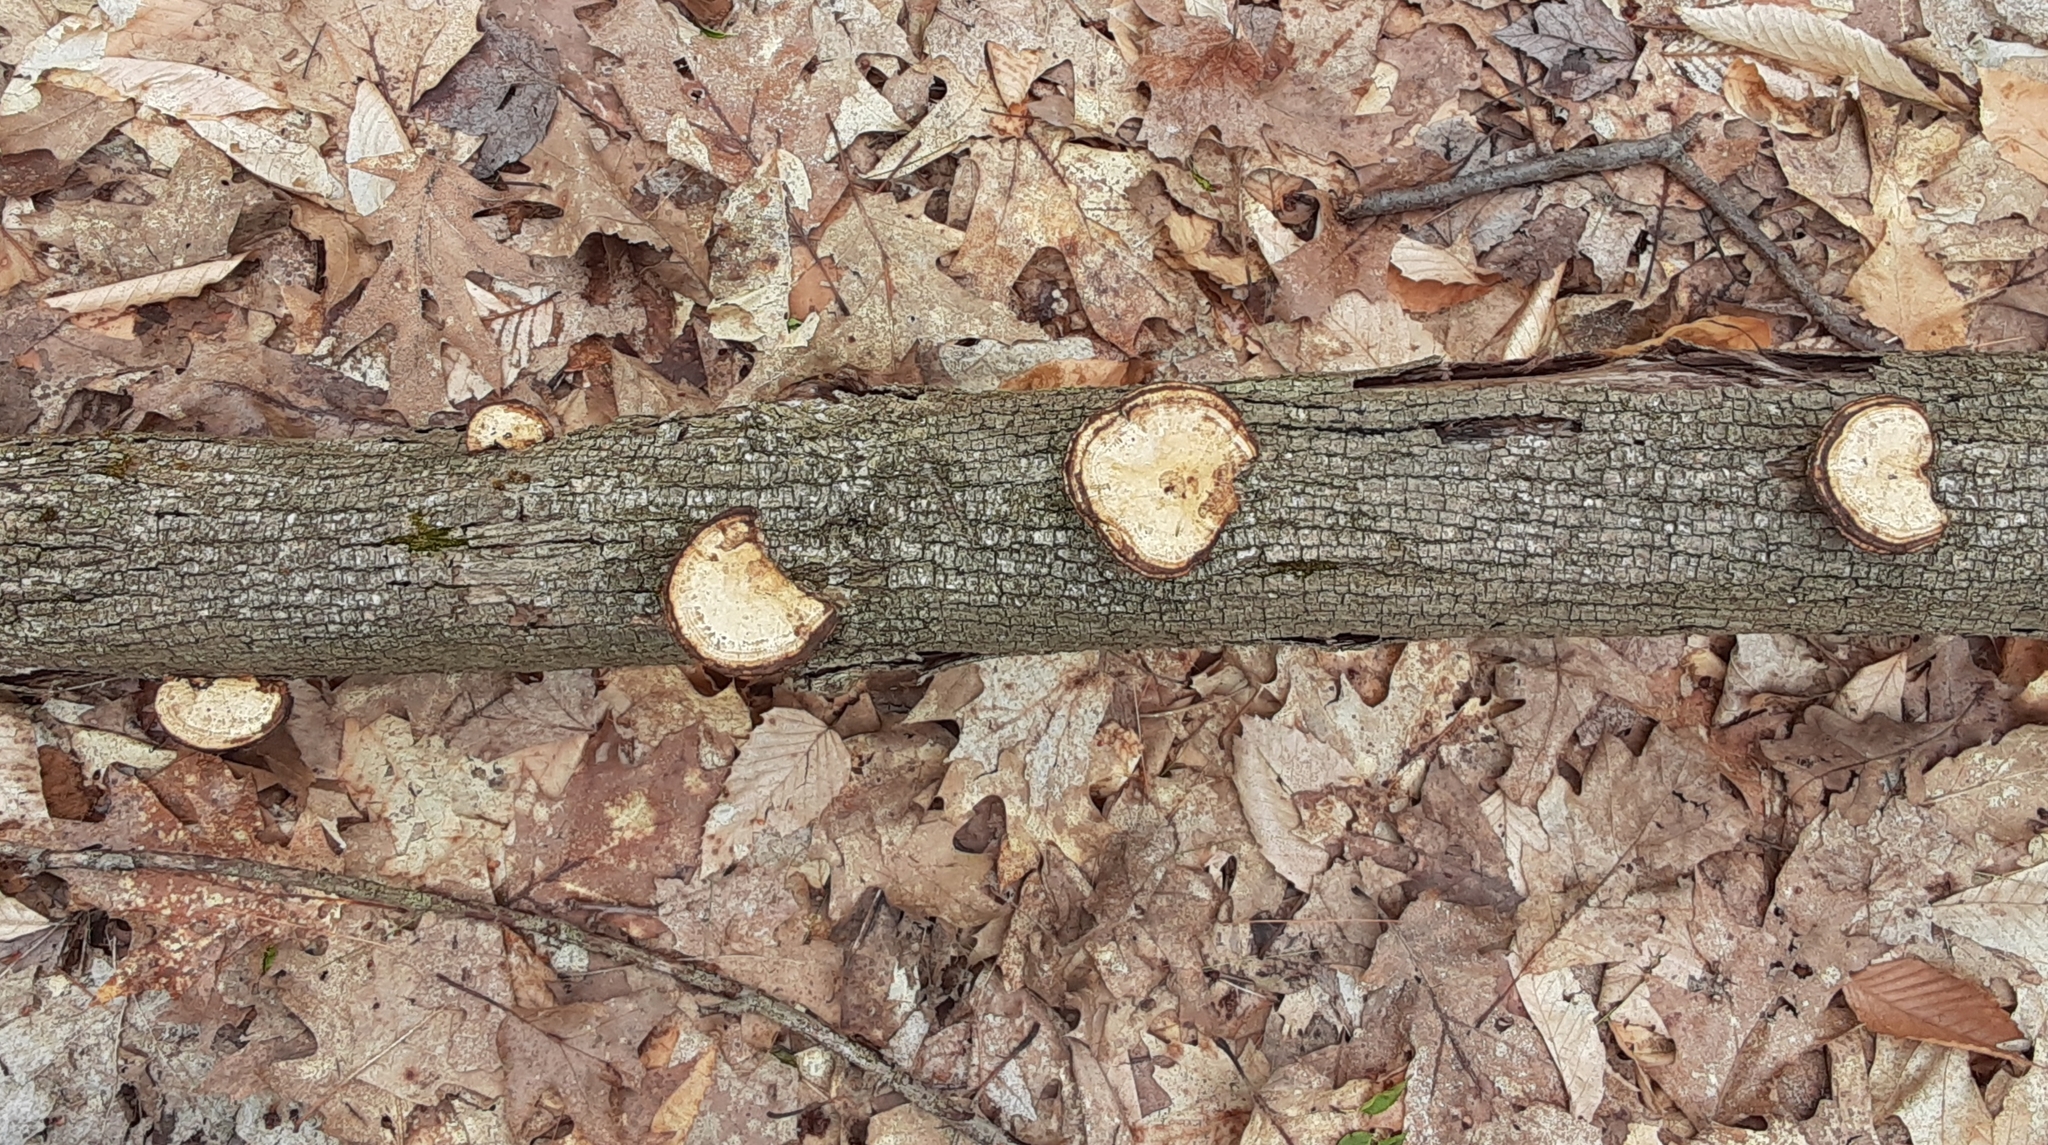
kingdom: Fungi
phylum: Basidiomycota
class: Agaricomycetes
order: Polyporales
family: Polyporaceae
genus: Daedaleopsis
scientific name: Daedaleopsis confragosa
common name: Blushing bracket
